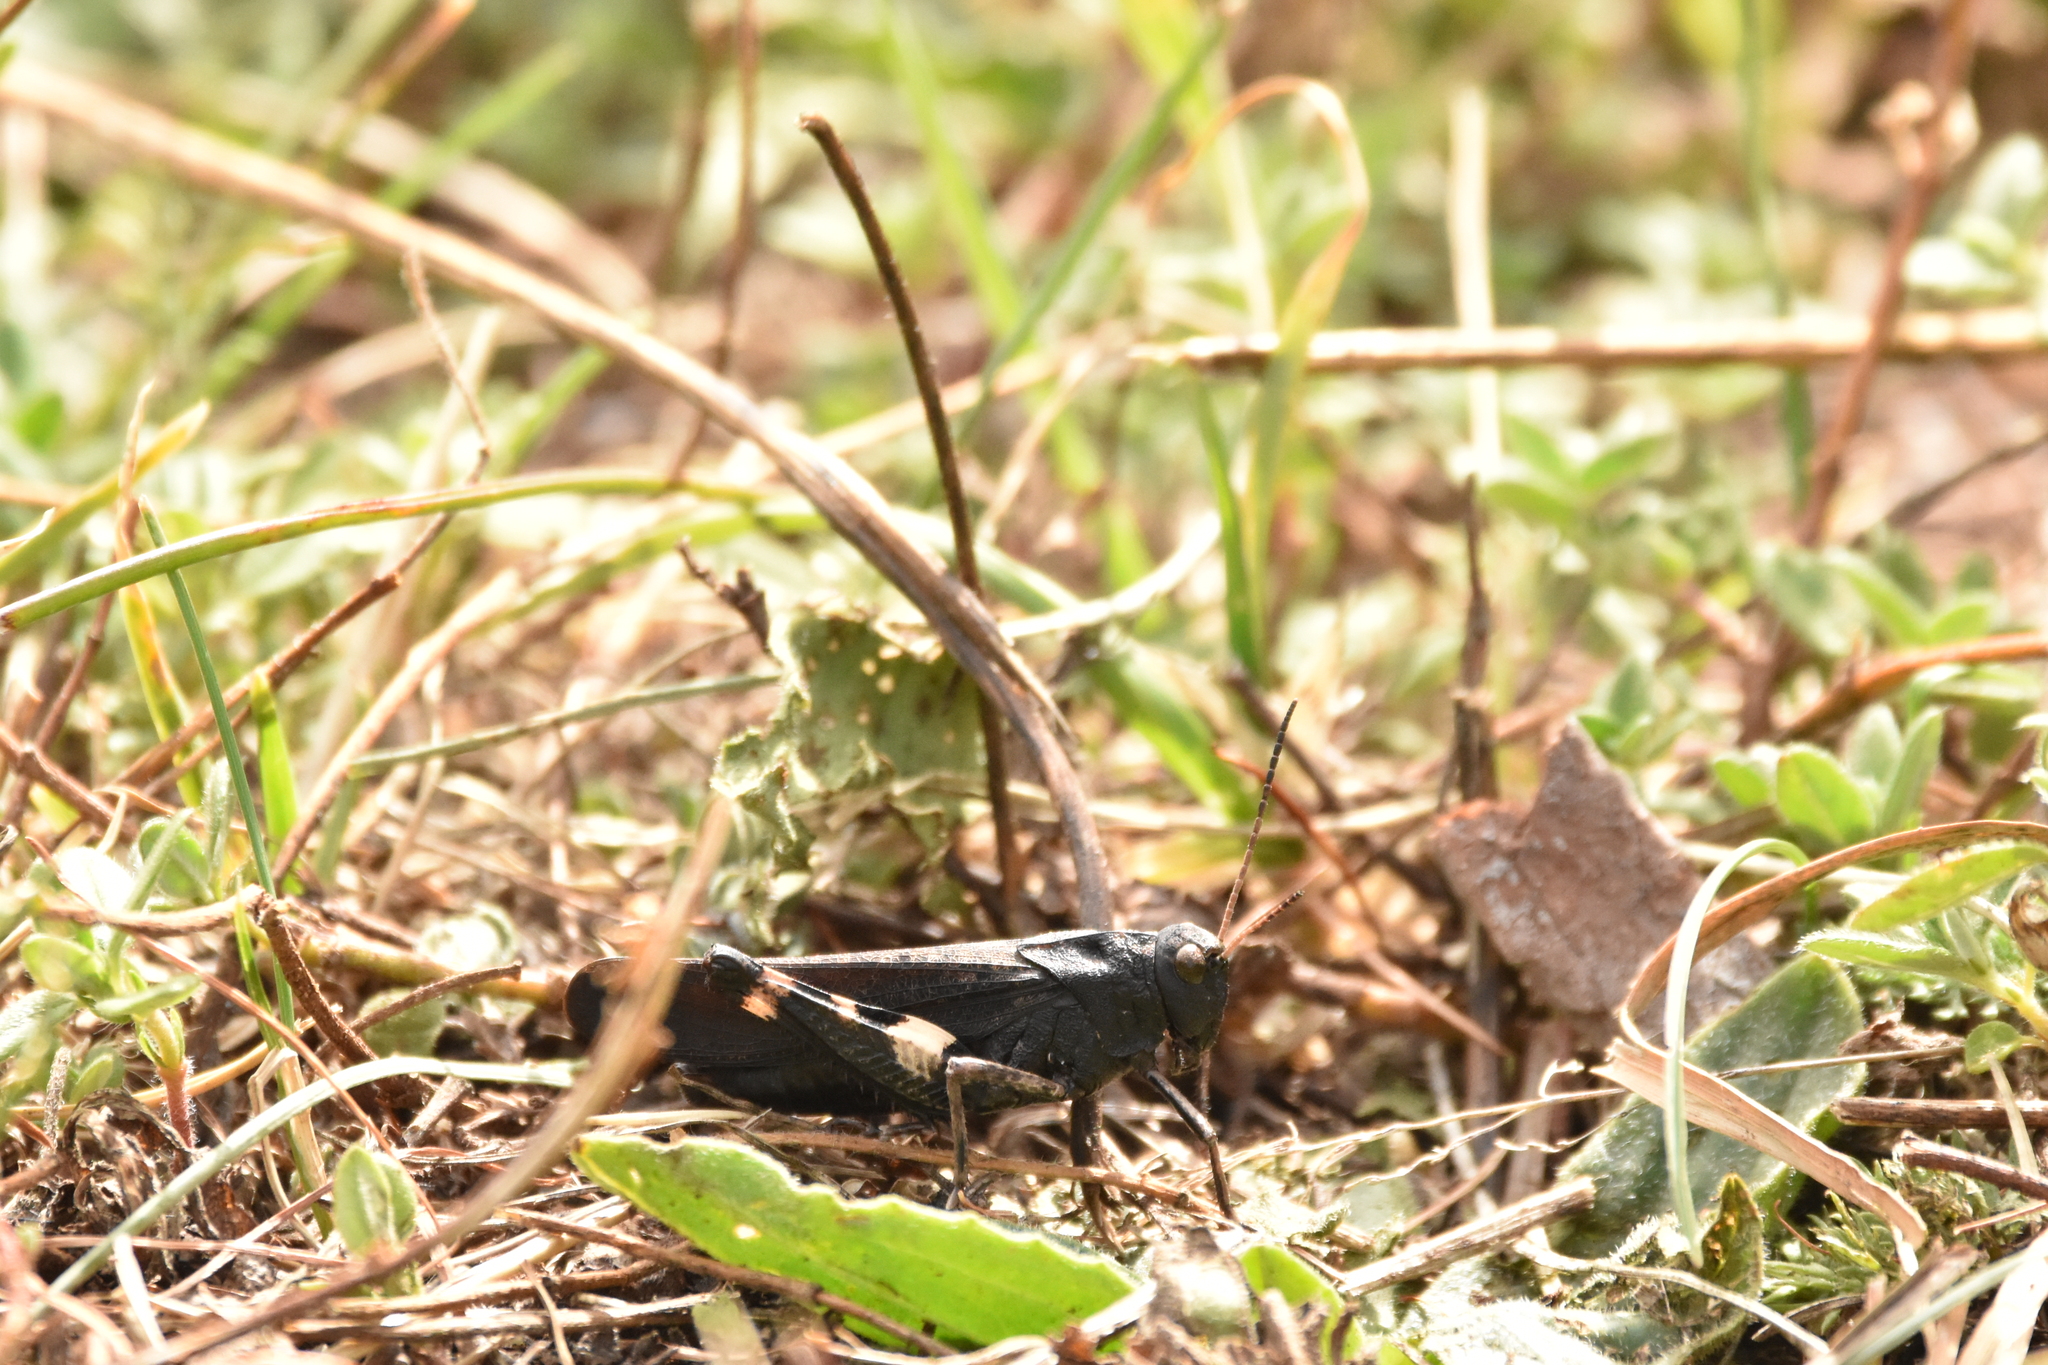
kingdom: Animalia
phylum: Arthropoda
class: Insecta
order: Orthoptera
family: Acrididae
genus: Psophus
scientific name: Psophus stridulus
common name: Rattle grasshopper
